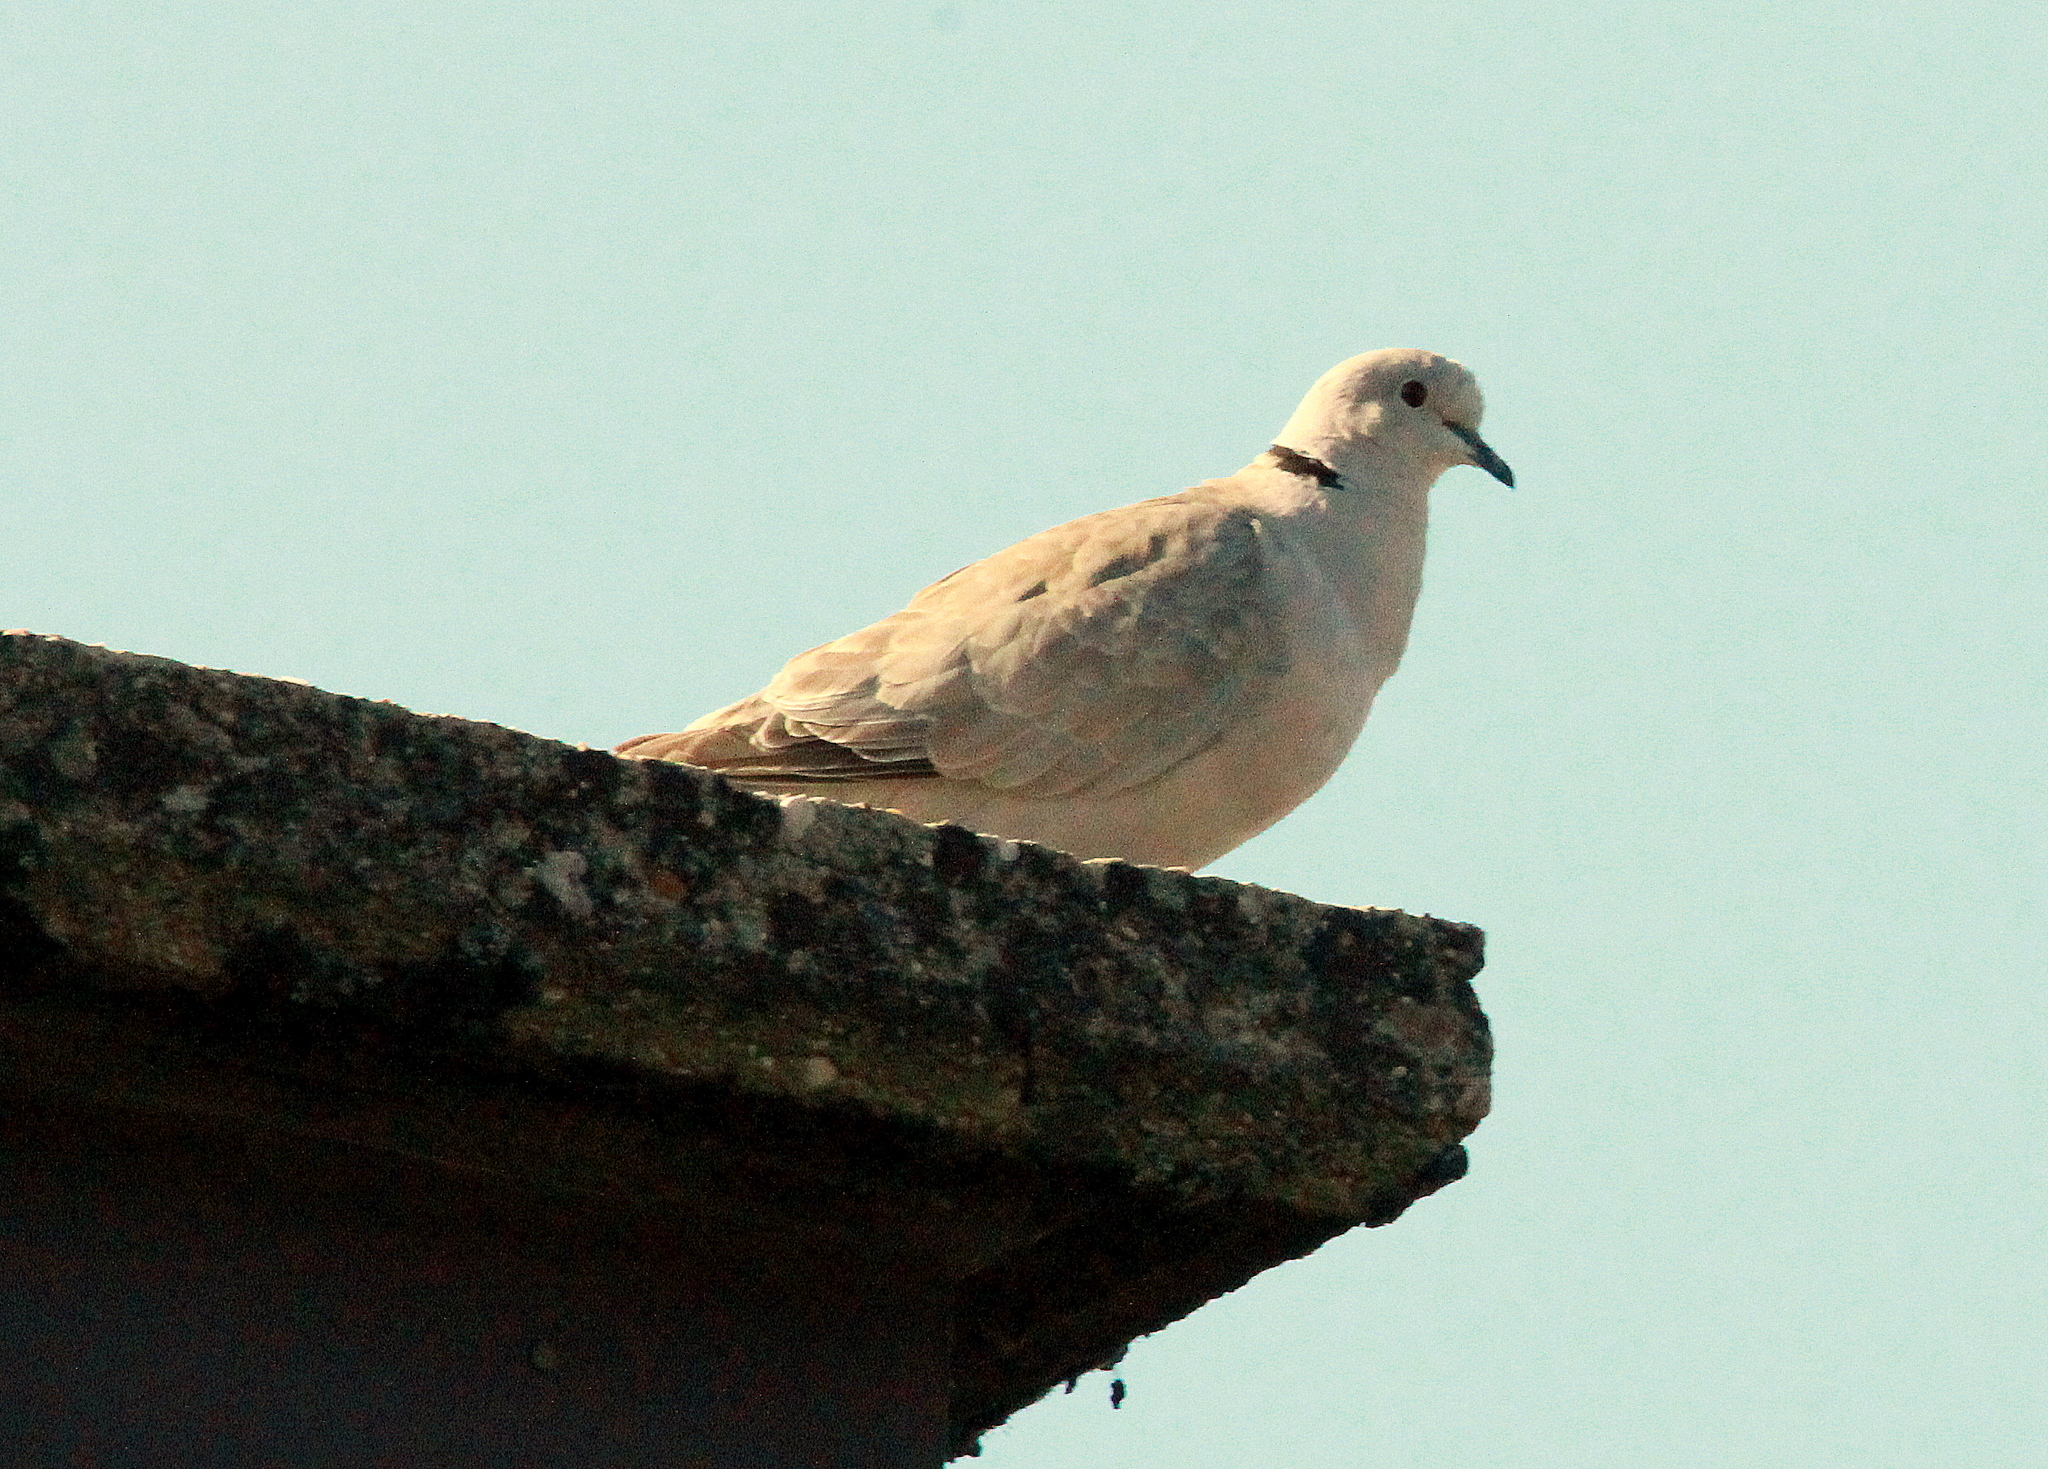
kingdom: Animalia
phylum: Chordata
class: Aves
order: Columbiformes
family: Columbidae
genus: Streptopelia
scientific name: Streptopelia decaocto
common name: Eurasian collared dove
